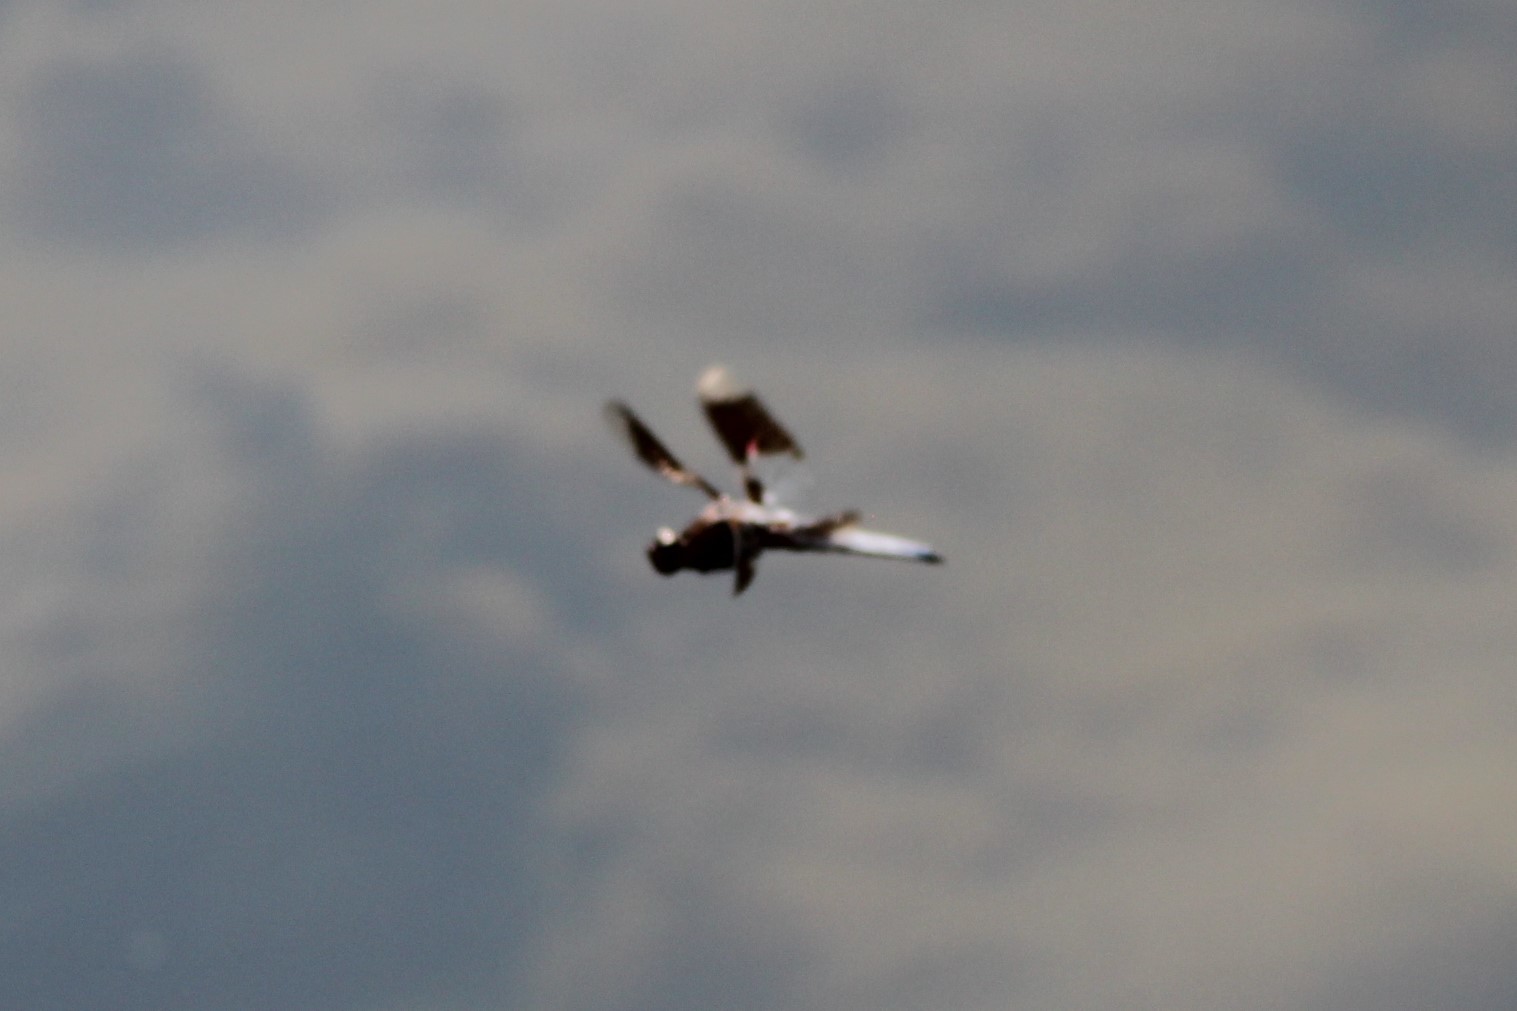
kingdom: Animalia
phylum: Arthropoda
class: Insecta
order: Odonata
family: Libellulidae
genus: Plathemis
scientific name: Plathemis lydia
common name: Common whitetail
